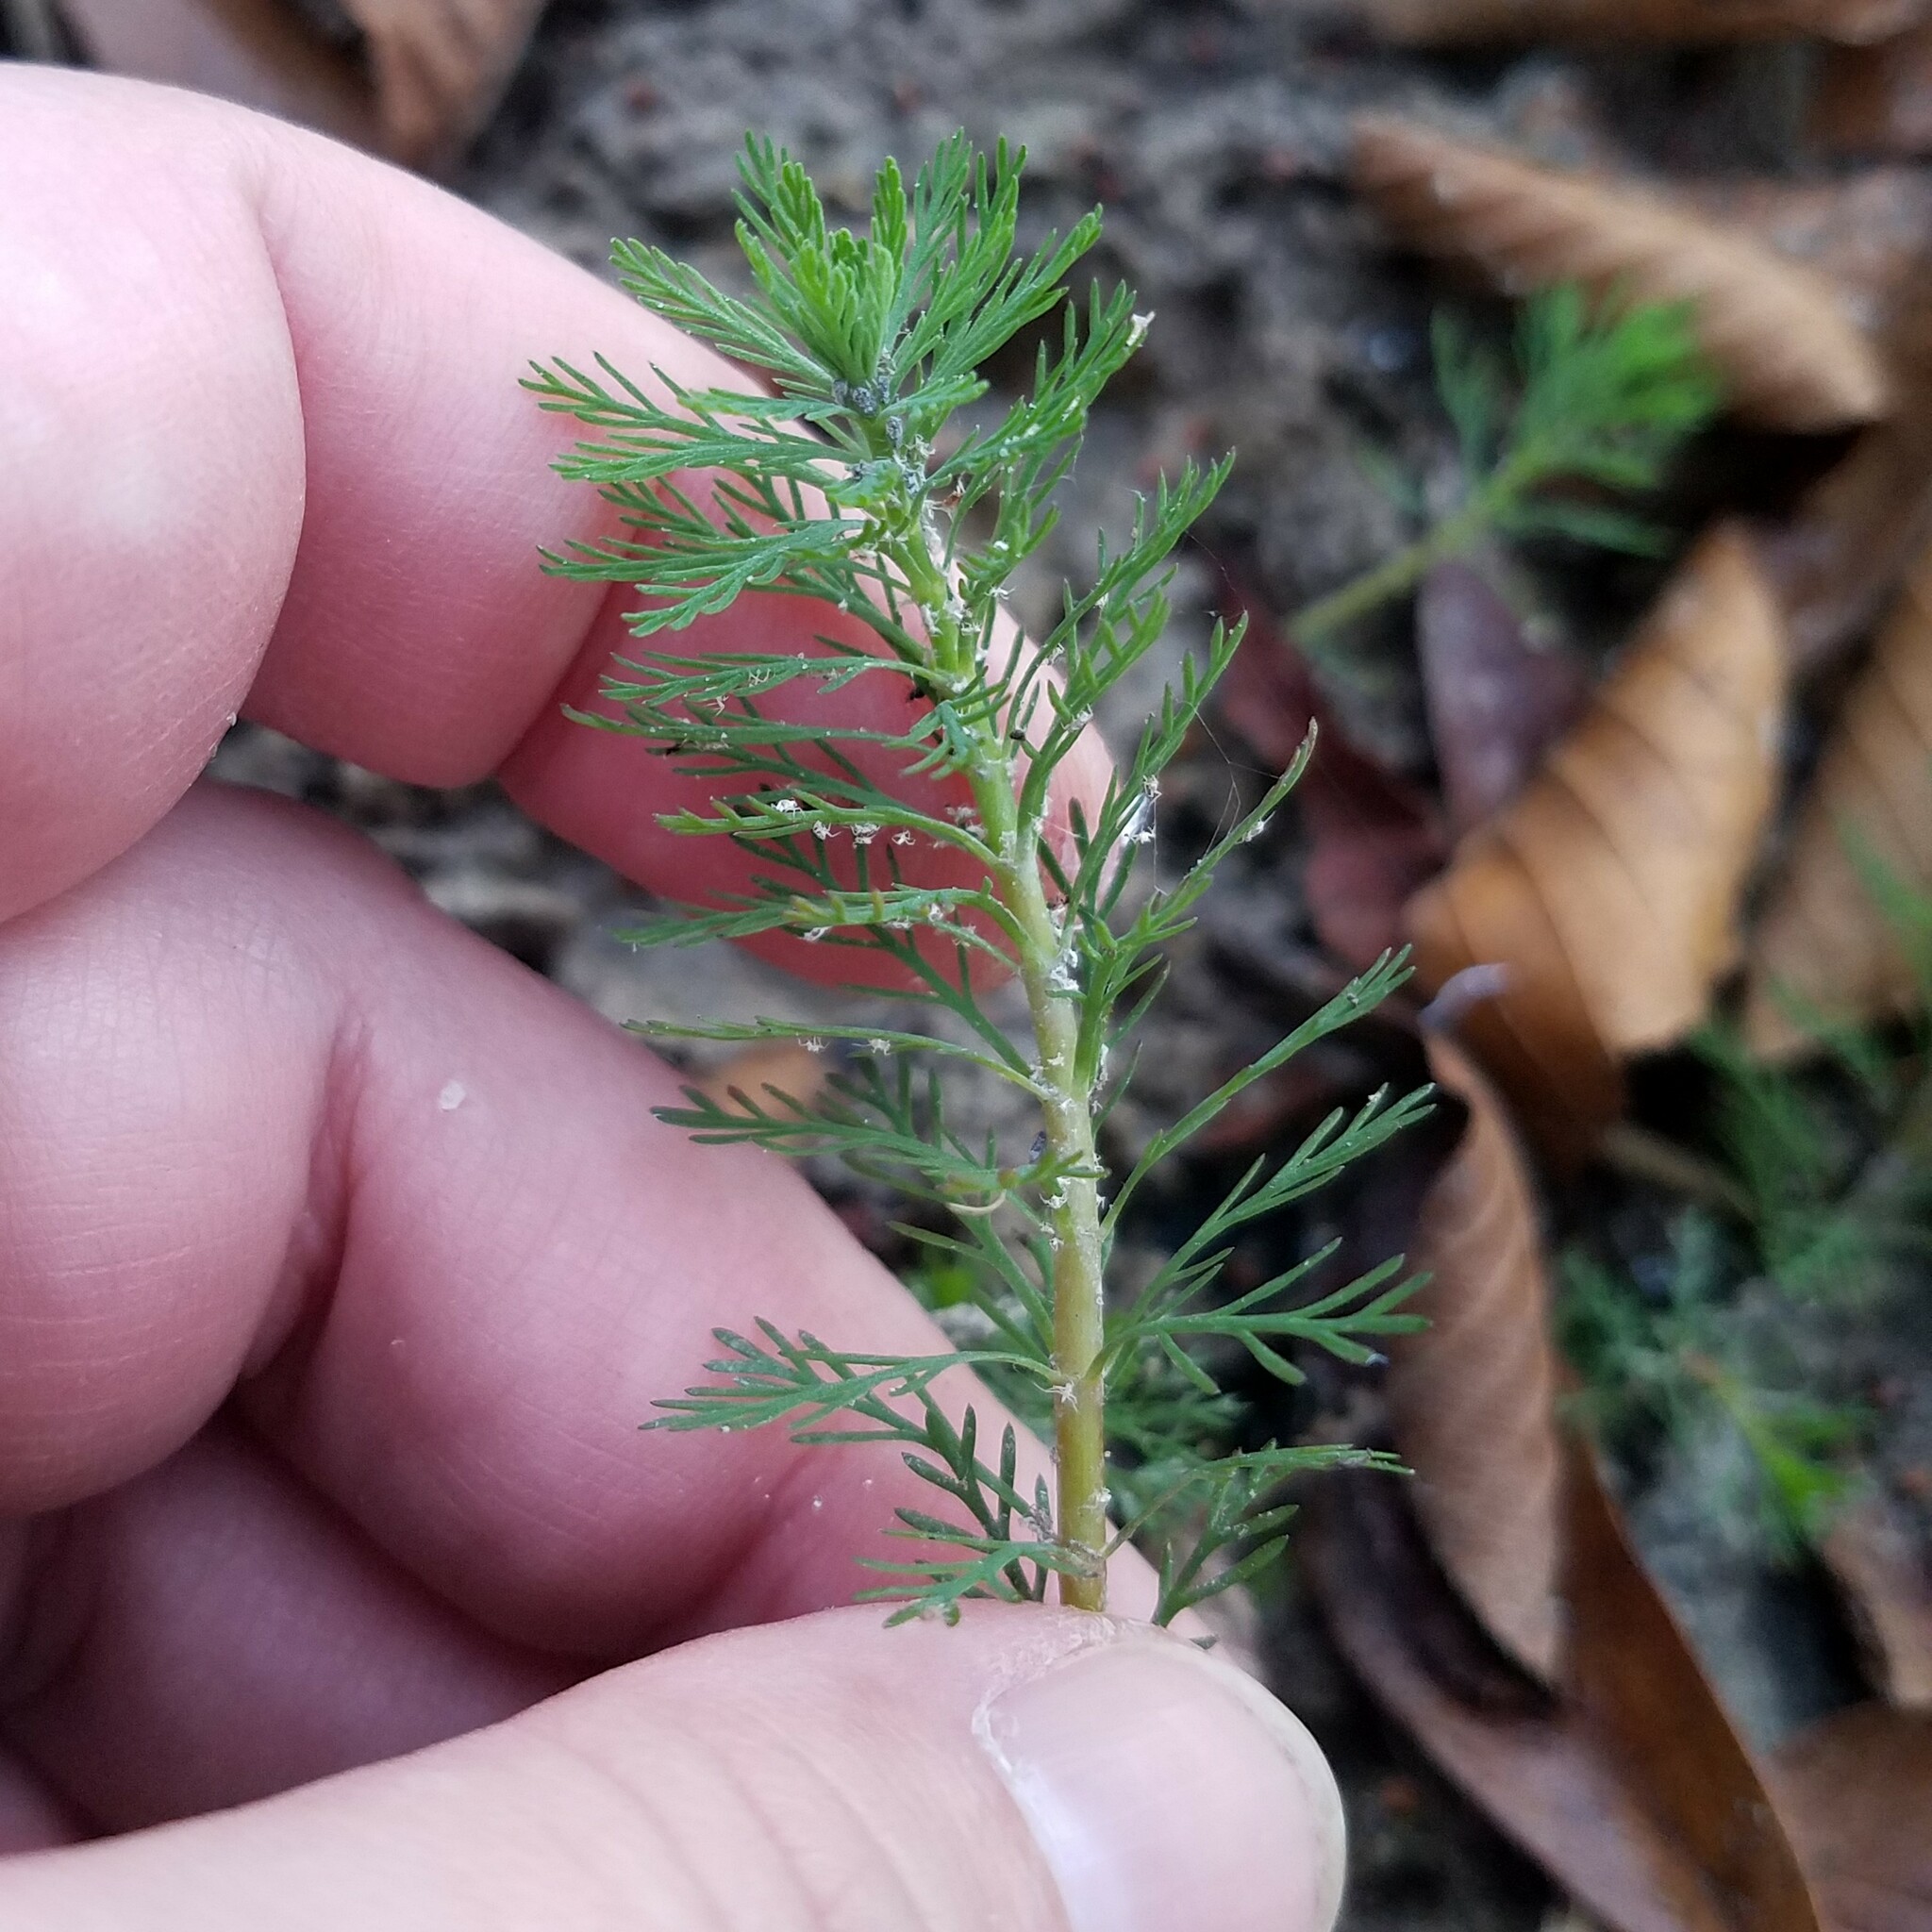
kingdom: Plantae
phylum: Tracheophyta
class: Magnoliopsida
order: Saxifragales
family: Haloragaceae
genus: Myriophyllum
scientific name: Myriophyllum aquaticum
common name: Parrot's feather
